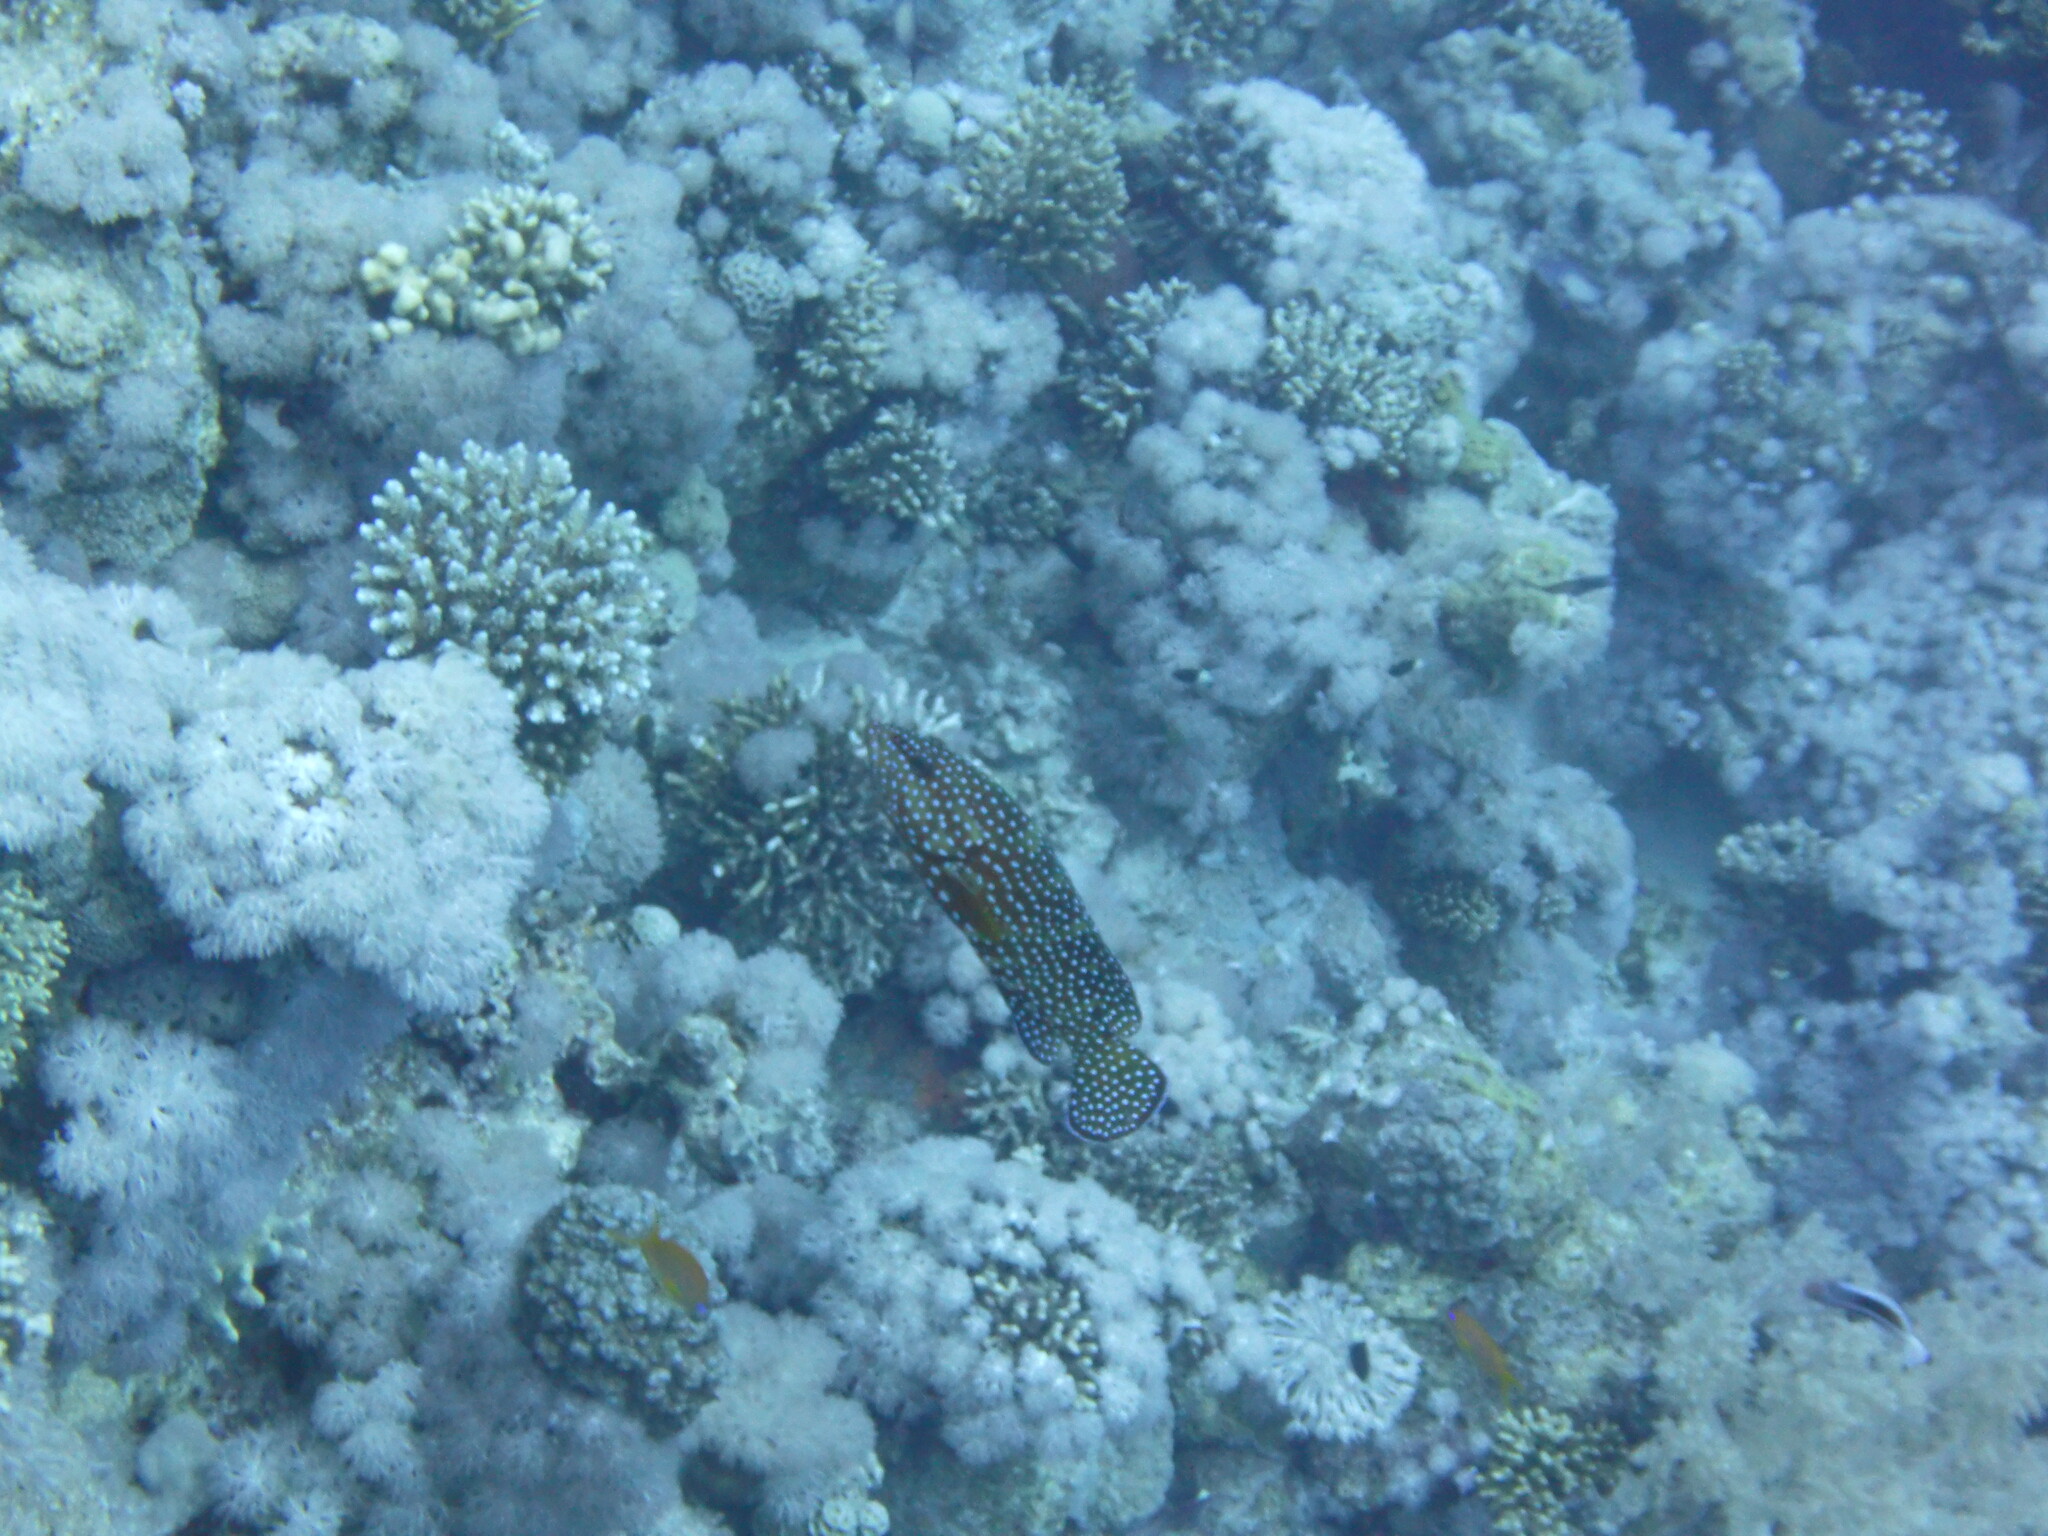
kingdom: Animalia
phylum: Chordata
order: Perciformes
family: Serranidae
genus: Cephalopholis
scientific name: Cephalopholis miniata
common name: Coral hind
